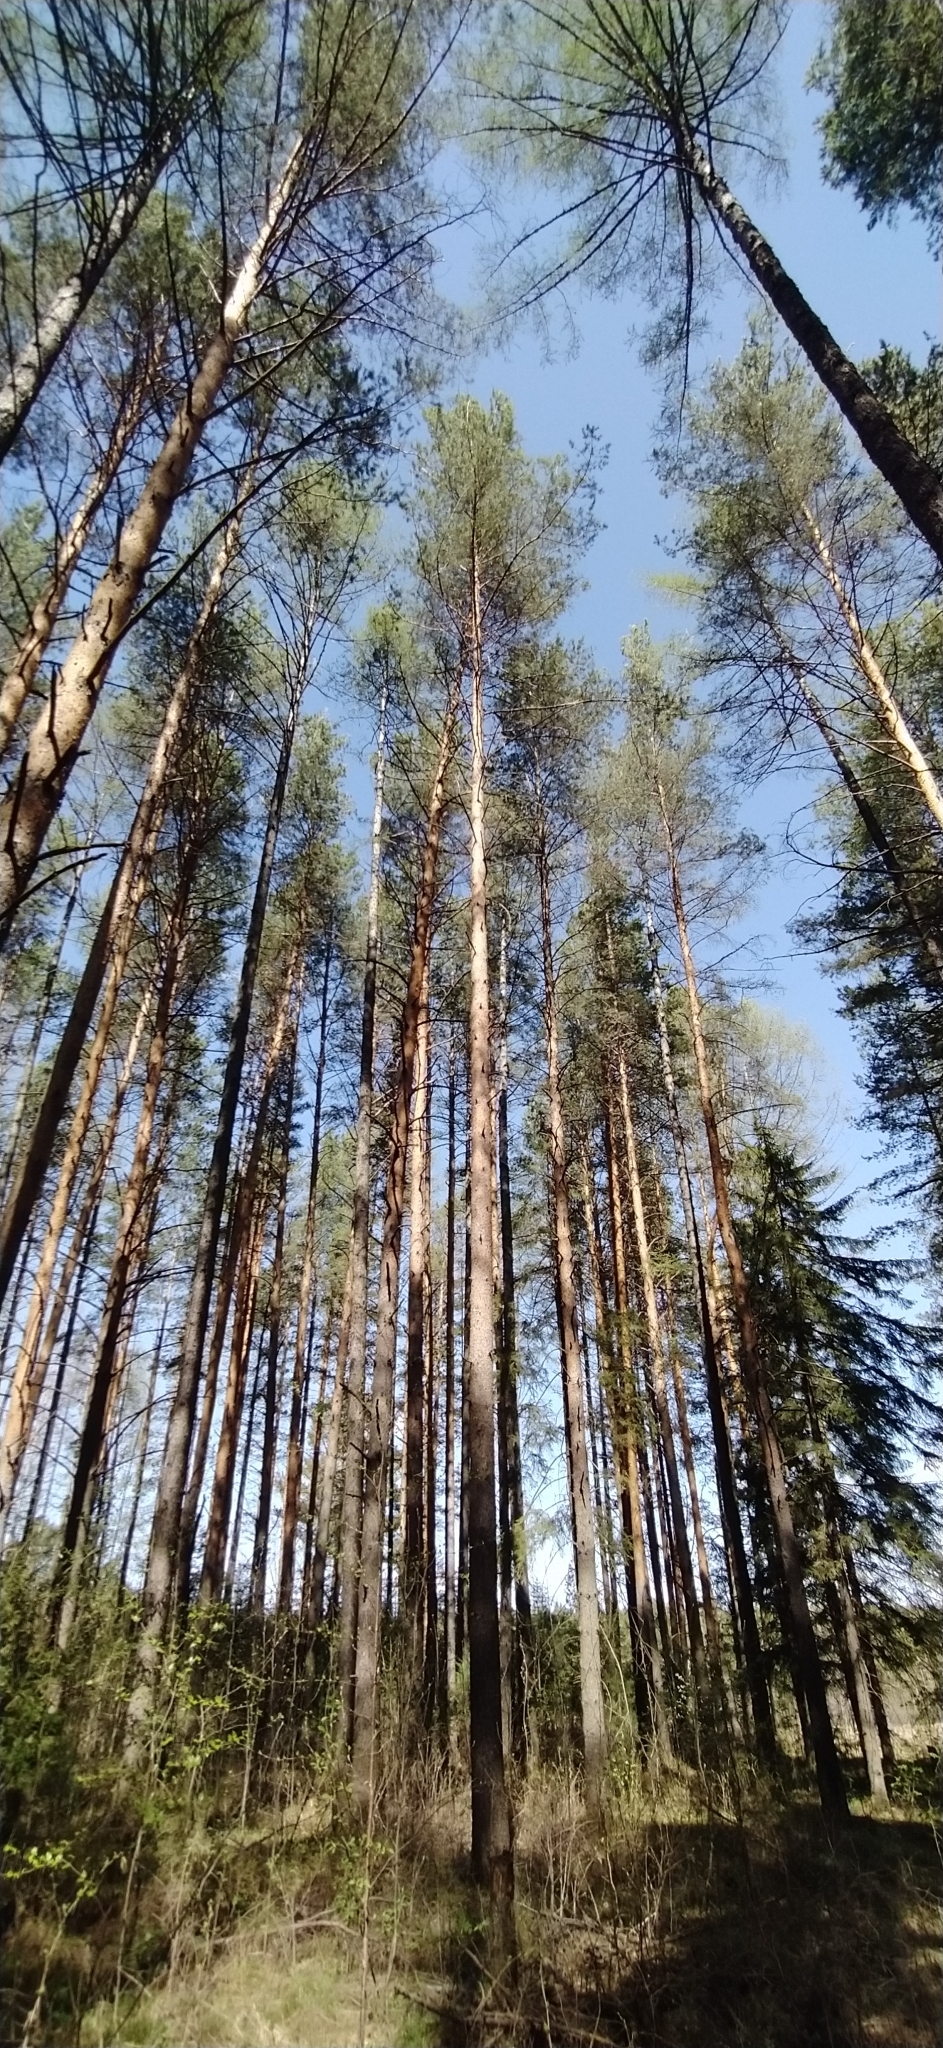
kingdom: Plantae
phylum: Tracheophyta
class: Pinopsida
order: Pinales
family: Pinaceae
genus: Pinus
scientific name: Pinus sylvestris
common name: Scots pine
